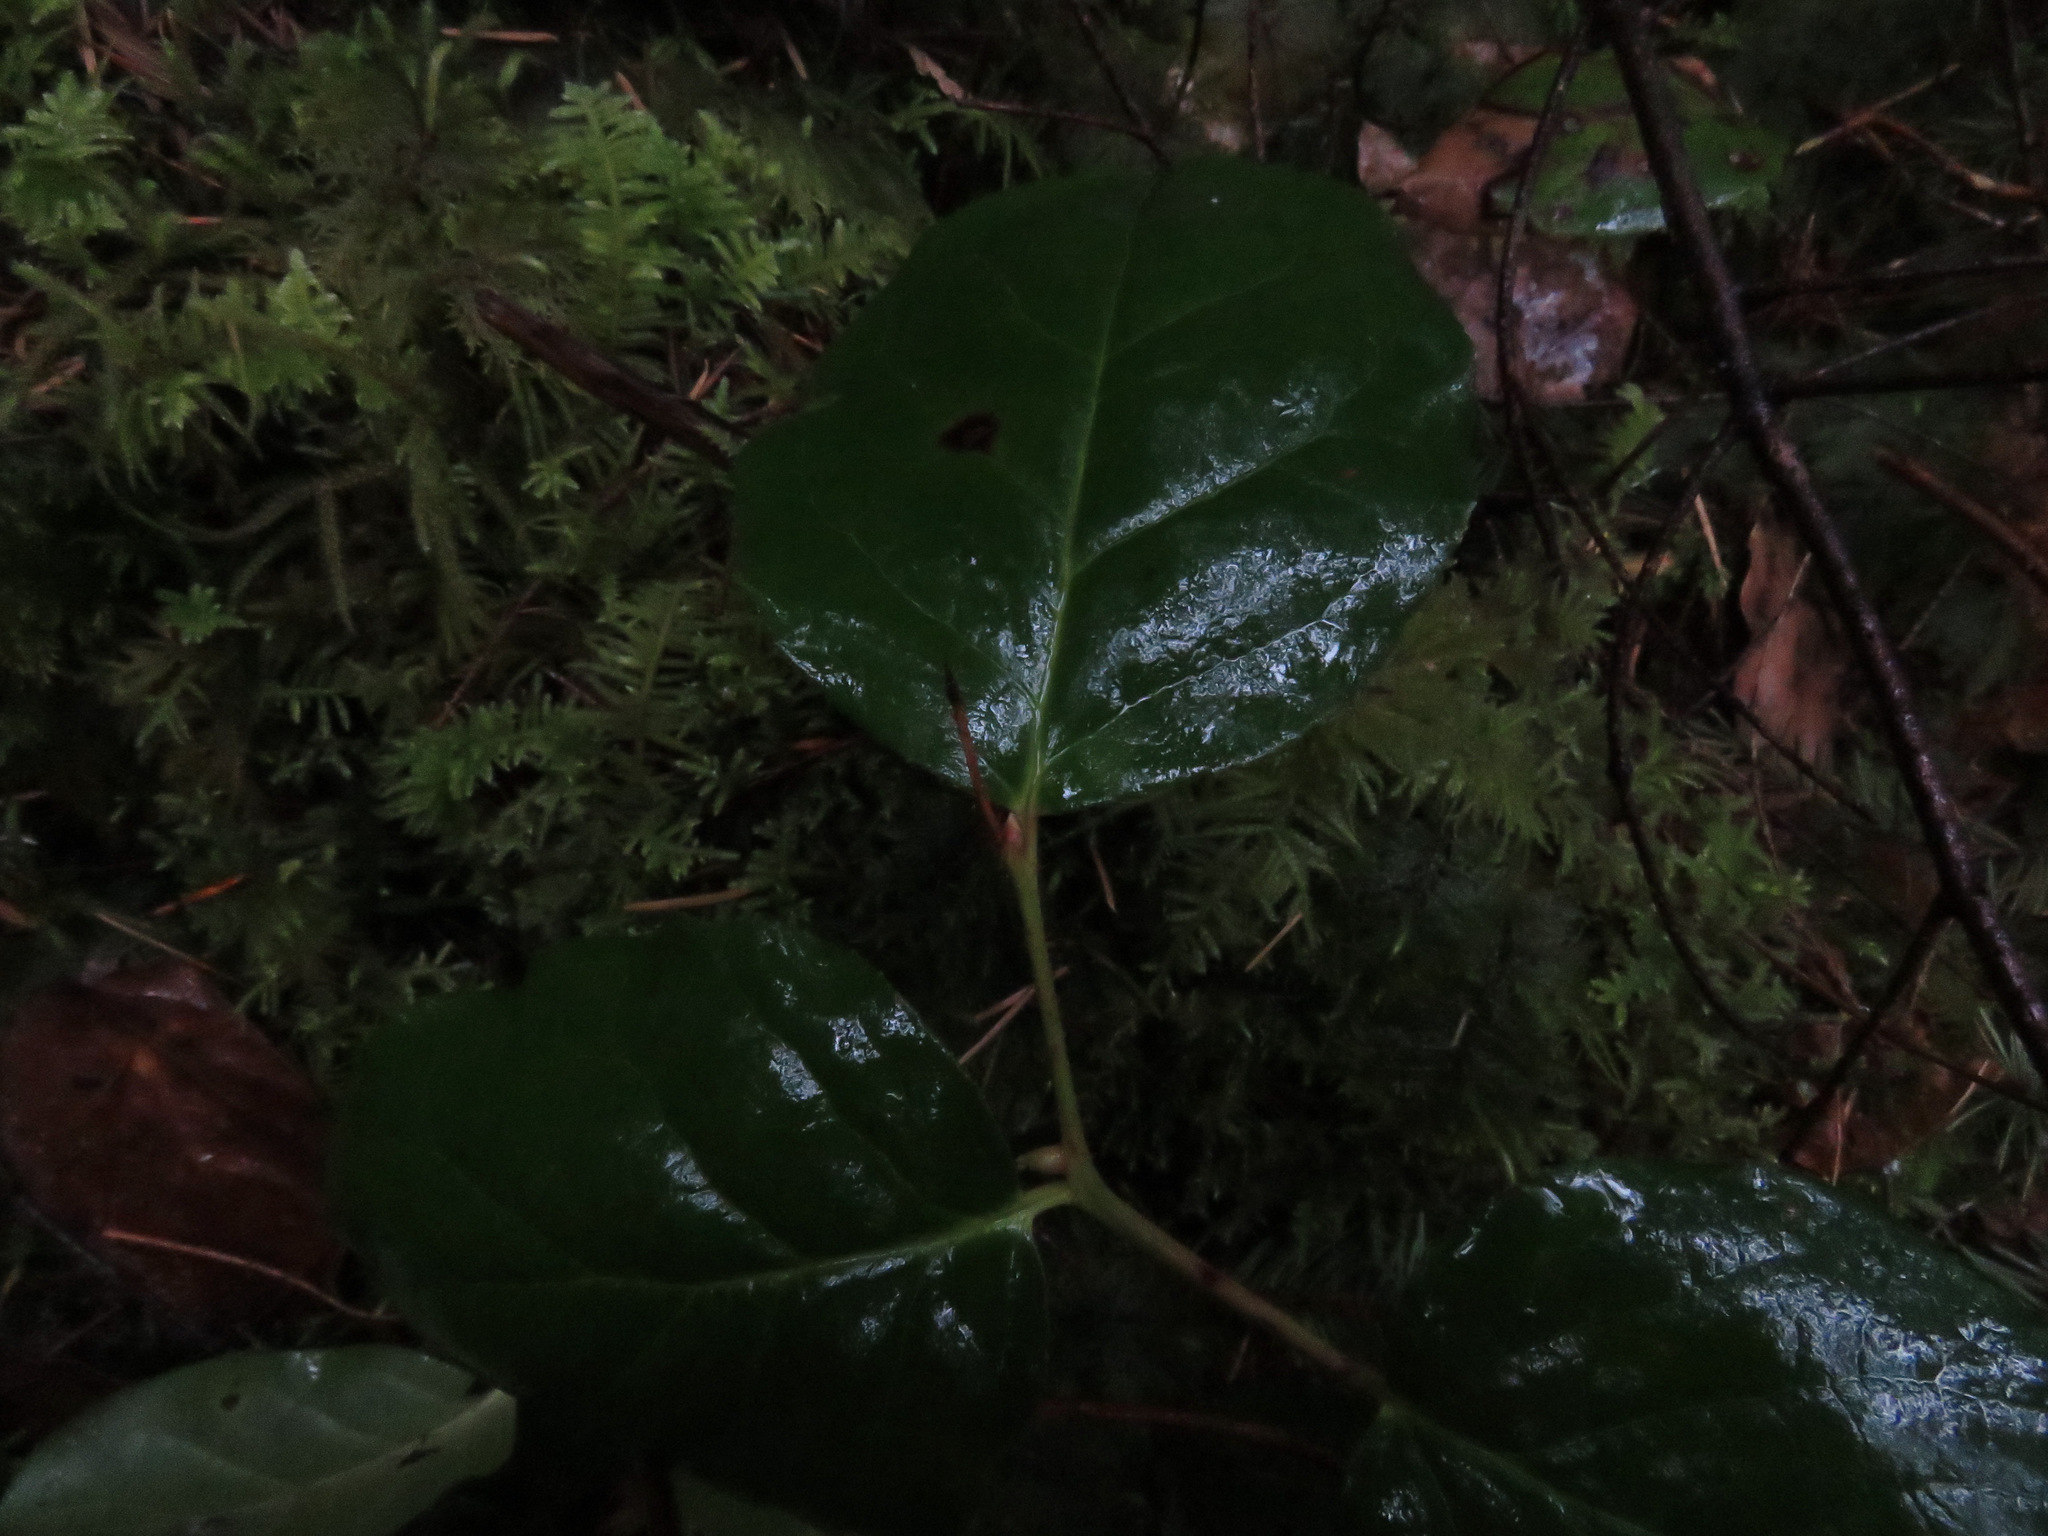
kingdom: Plantae
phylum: Tracheophyta
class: Magnoliopsida
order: Ericales
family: Ericaceae
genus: Gaultheria
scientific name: Gaultheria shallon
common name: Shallon
